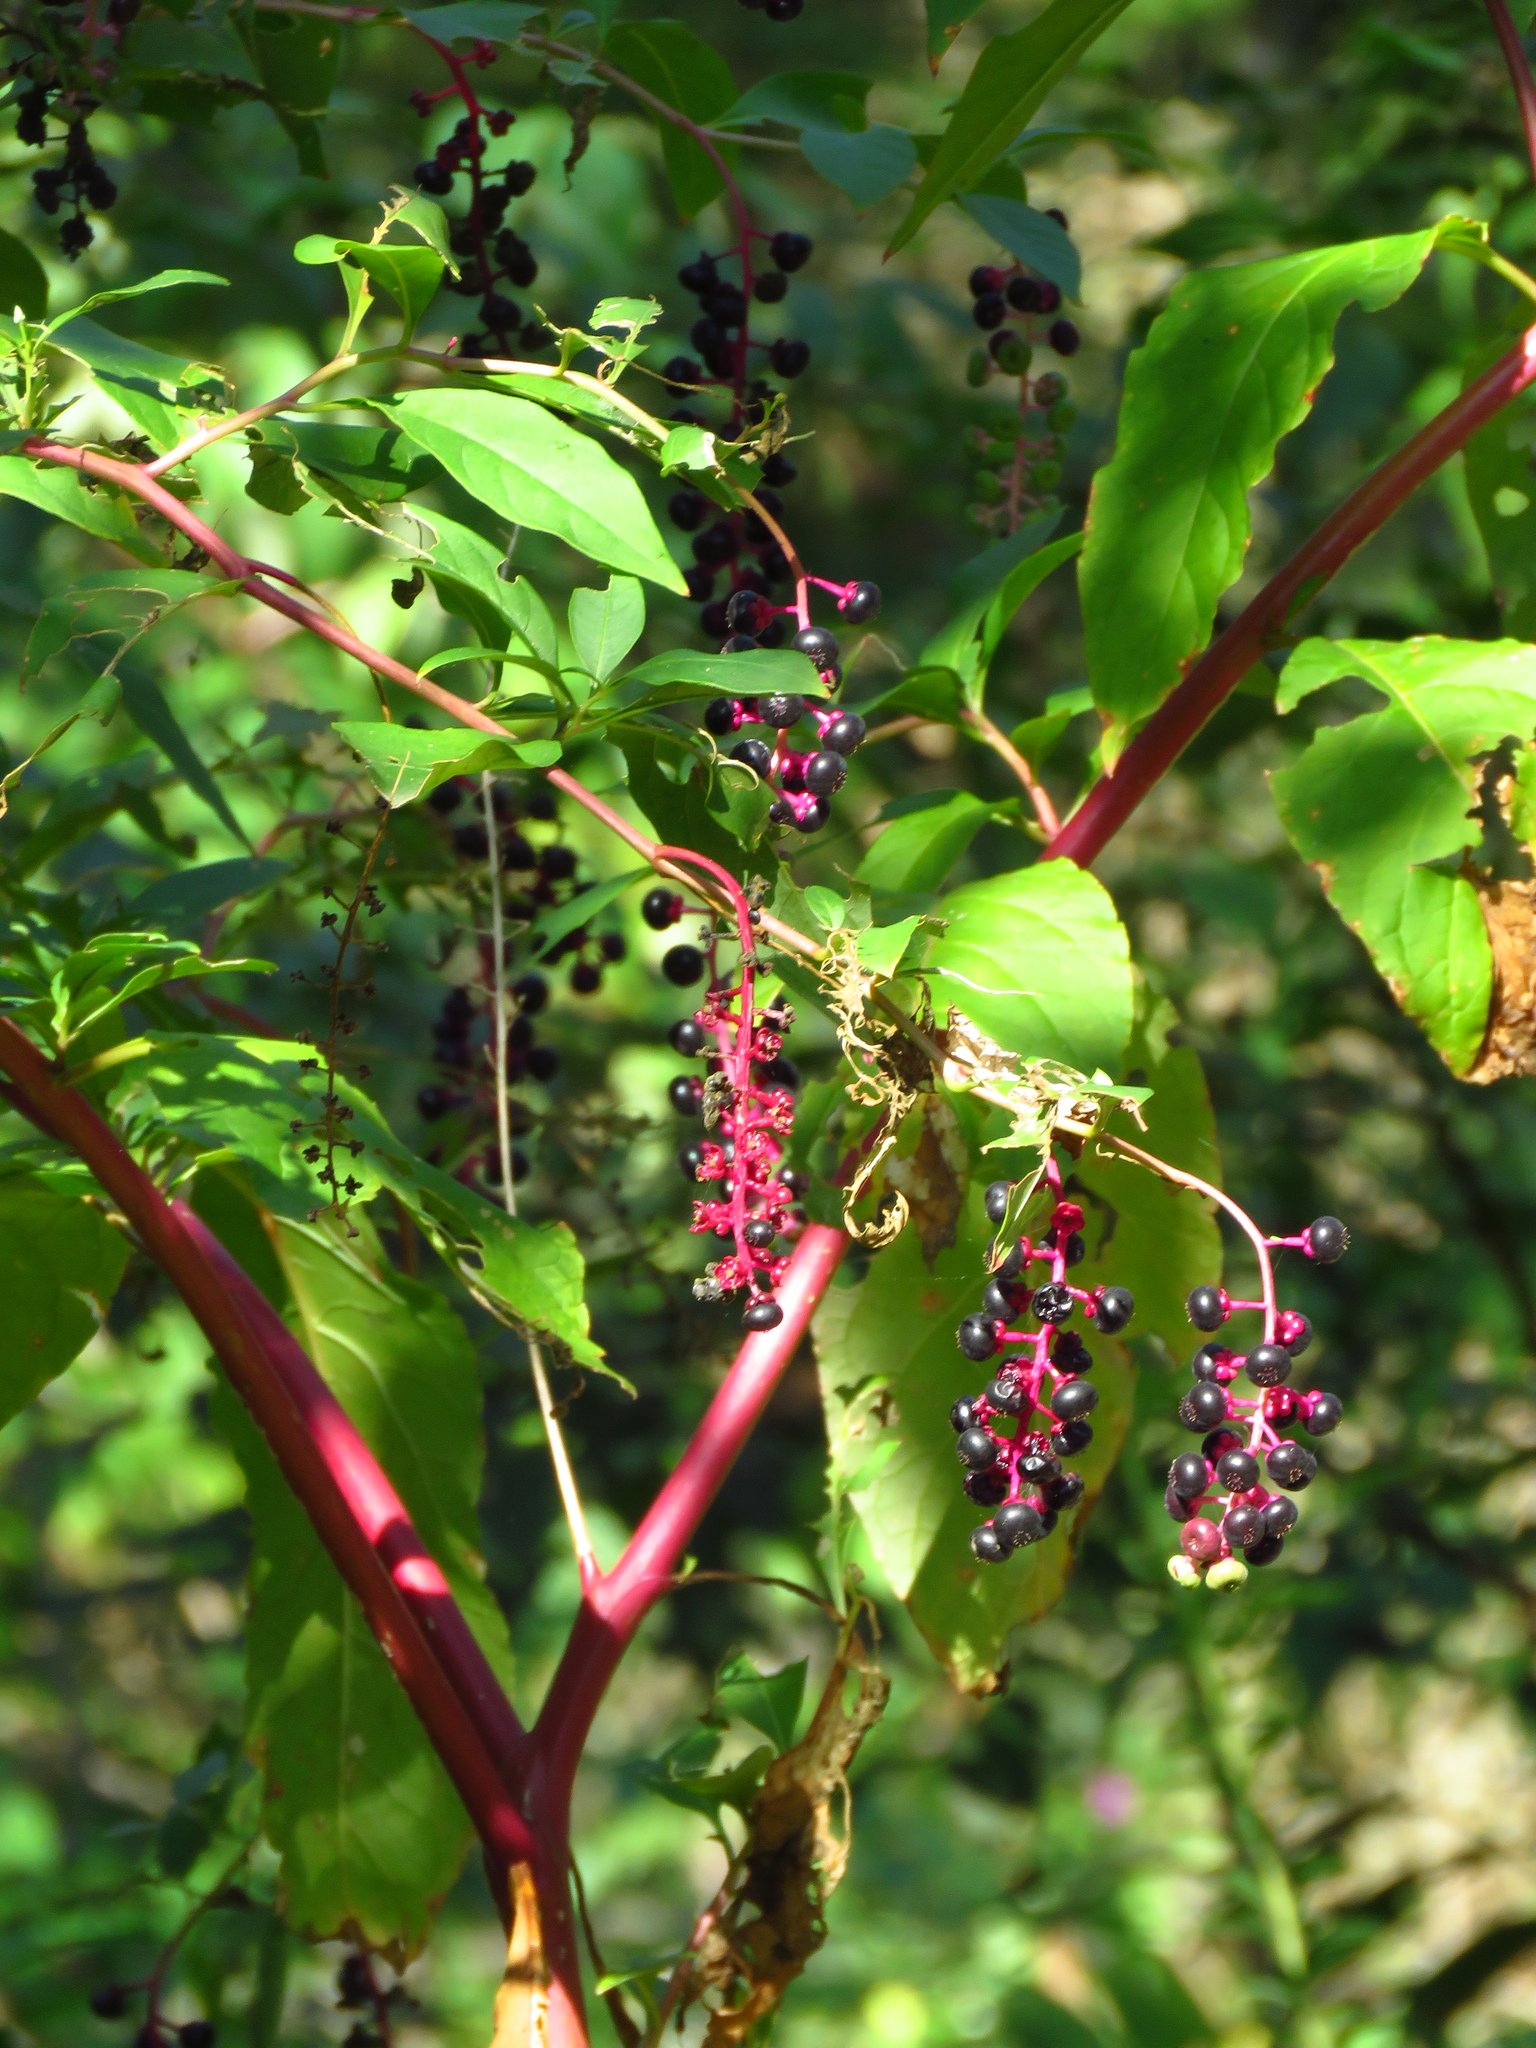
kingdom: Plantae
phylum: Tracheophyta
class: Magnoliopsida
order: Caryophyllales
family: Phytolaccaceae
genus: Phytolacca
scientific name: Phytolacca americana
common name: American pokeweed
